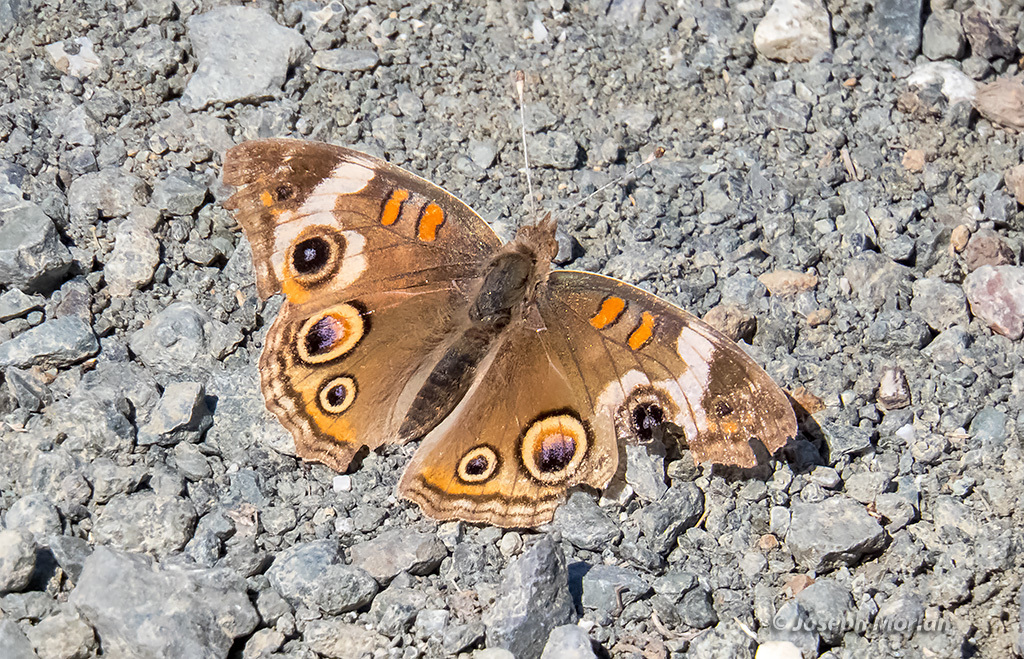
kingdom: Animalia
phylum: Arthropoda
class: Insecta
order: Lepidoptera
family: Nymphalidae
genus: Junonia
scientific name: Junonia grisea
